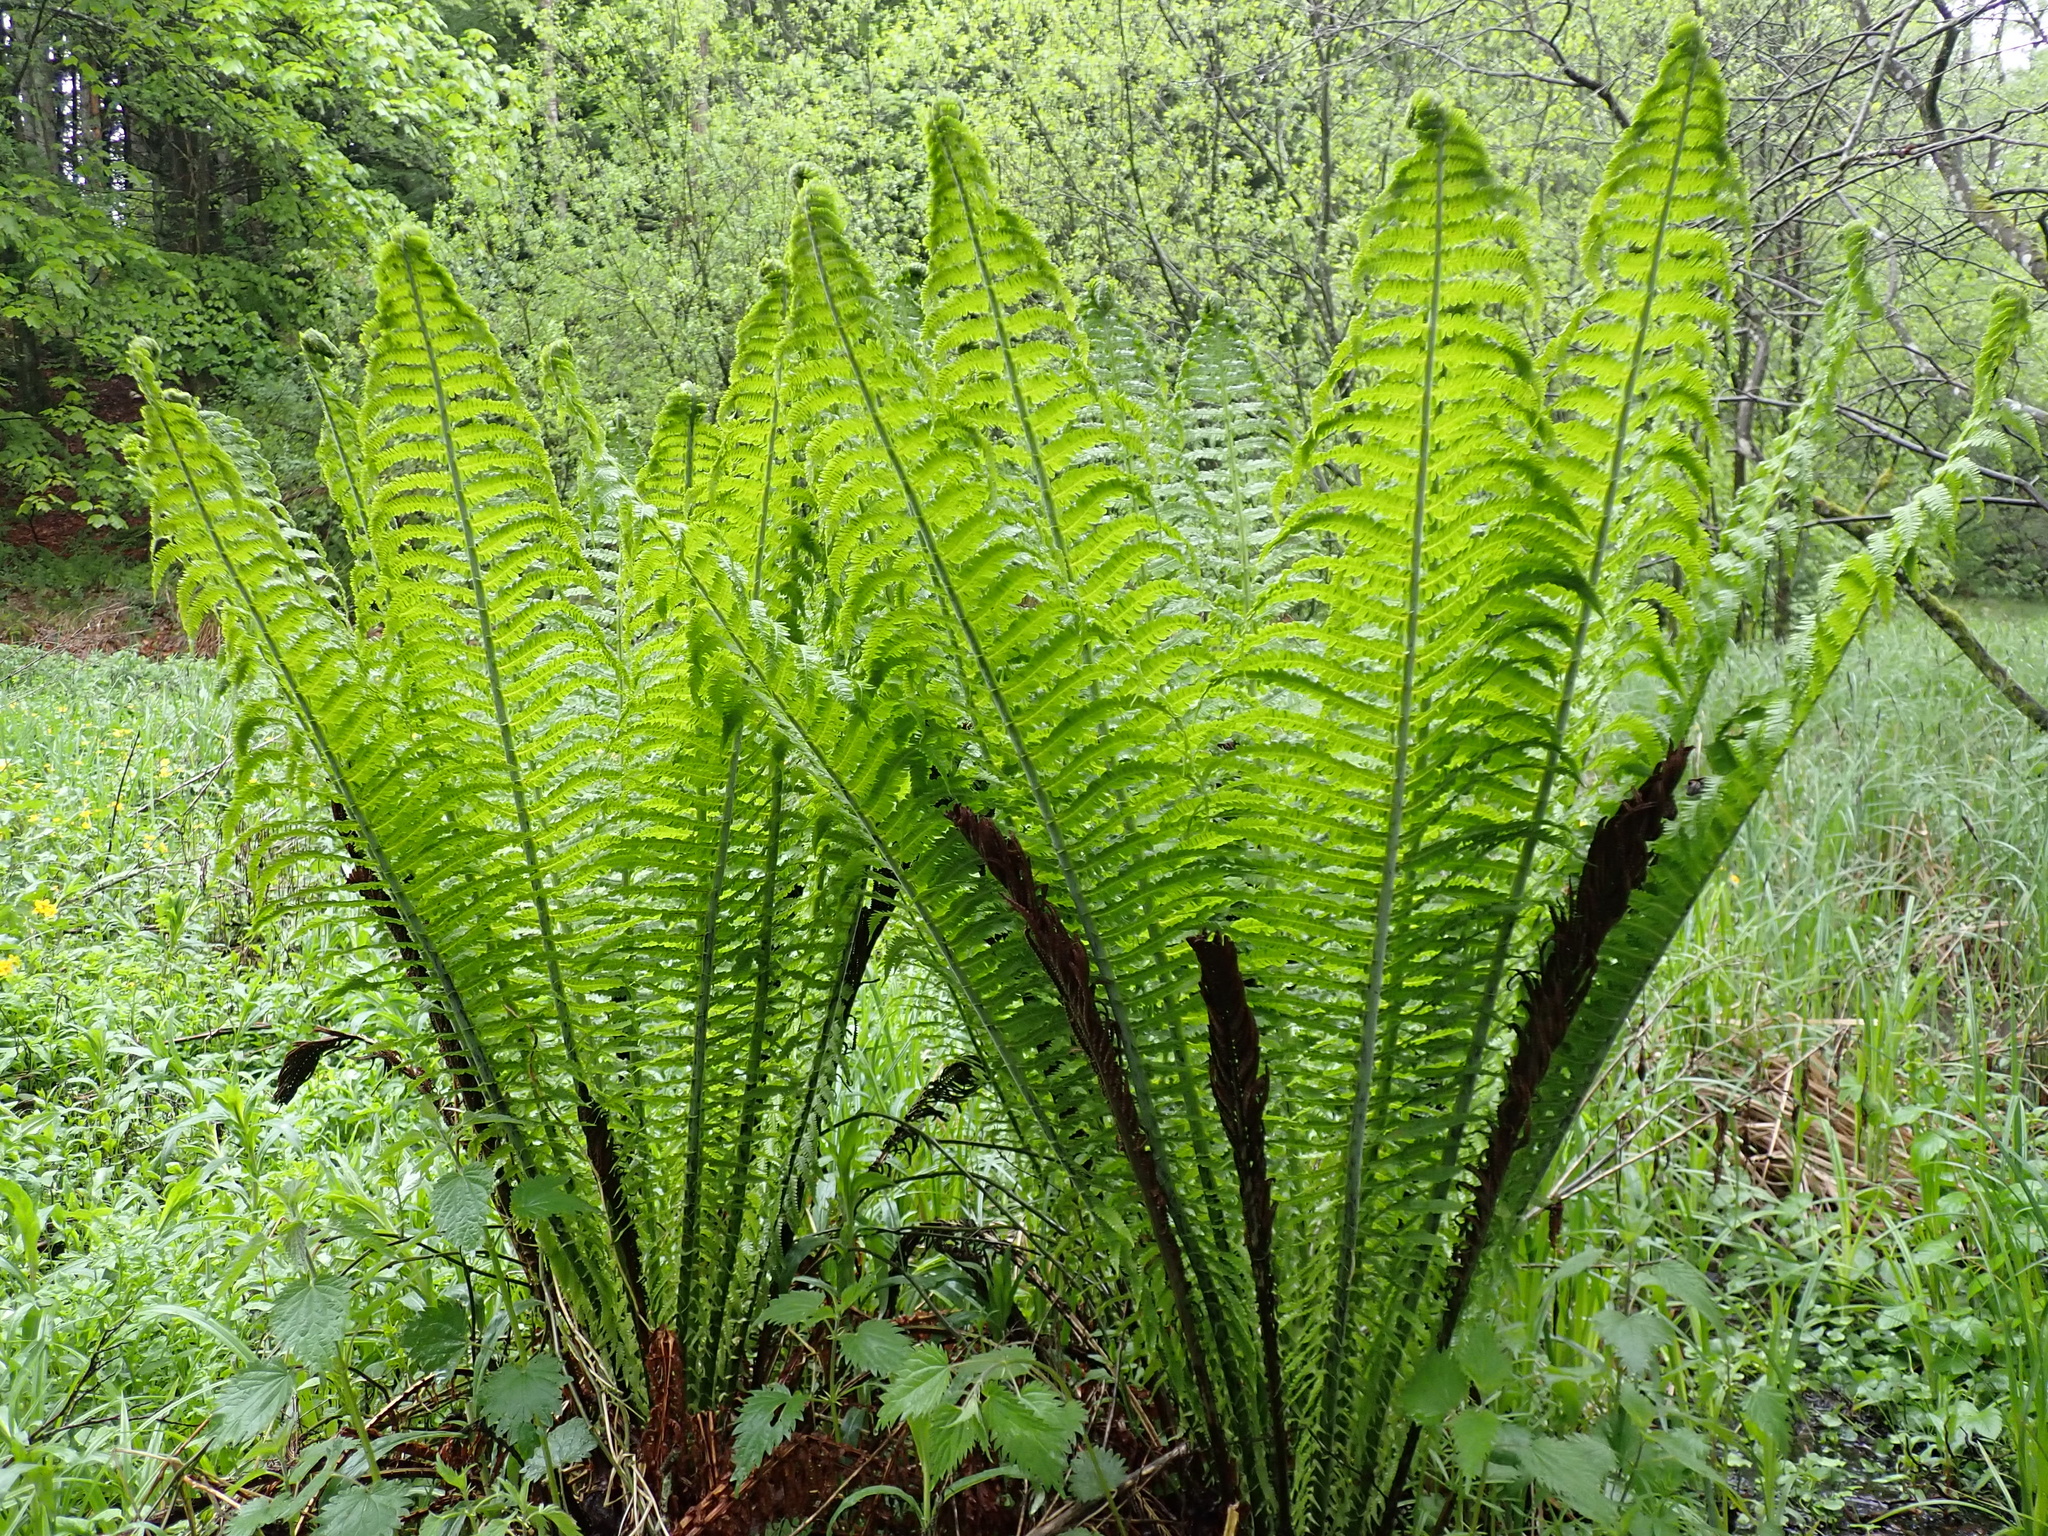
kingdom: Plantae
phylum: Tracheophyta
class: Polypodiopsida
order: Polypodiales
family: Onocleaceae
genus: Matteuccia
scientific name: Matteuccia struthiopteris
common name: Ostrich fern
